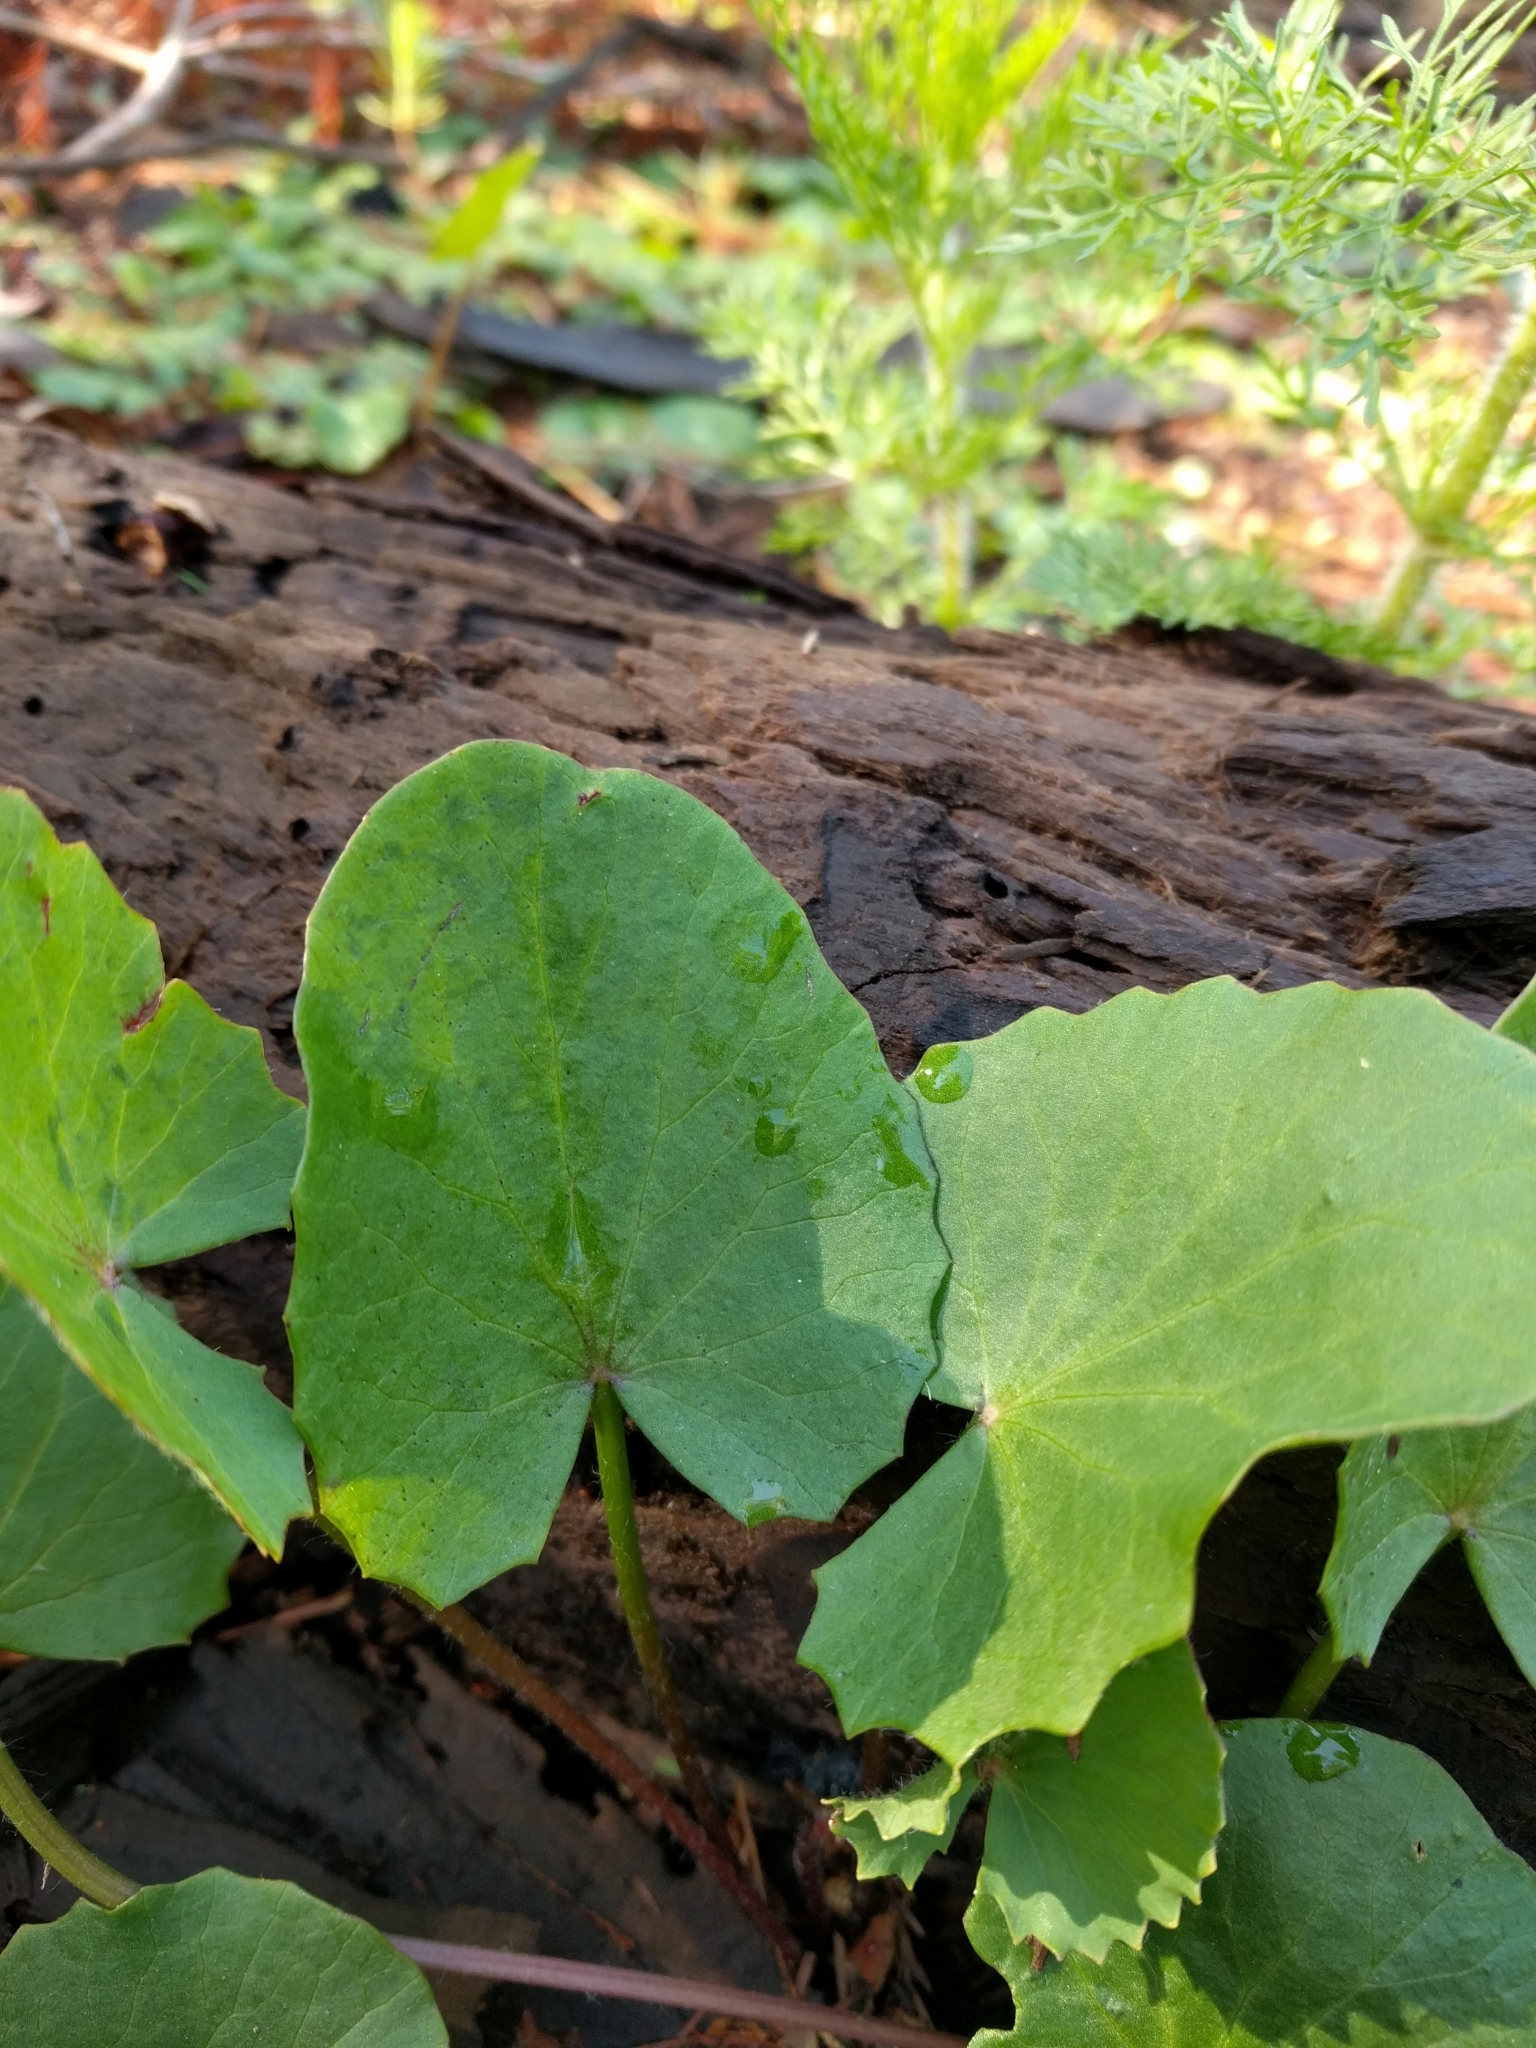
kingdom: Plantae
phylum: Tracheophyta
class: Magnoliopsida
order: Apiales
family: Apiaceae
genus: Centella
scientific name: Centella erecta
